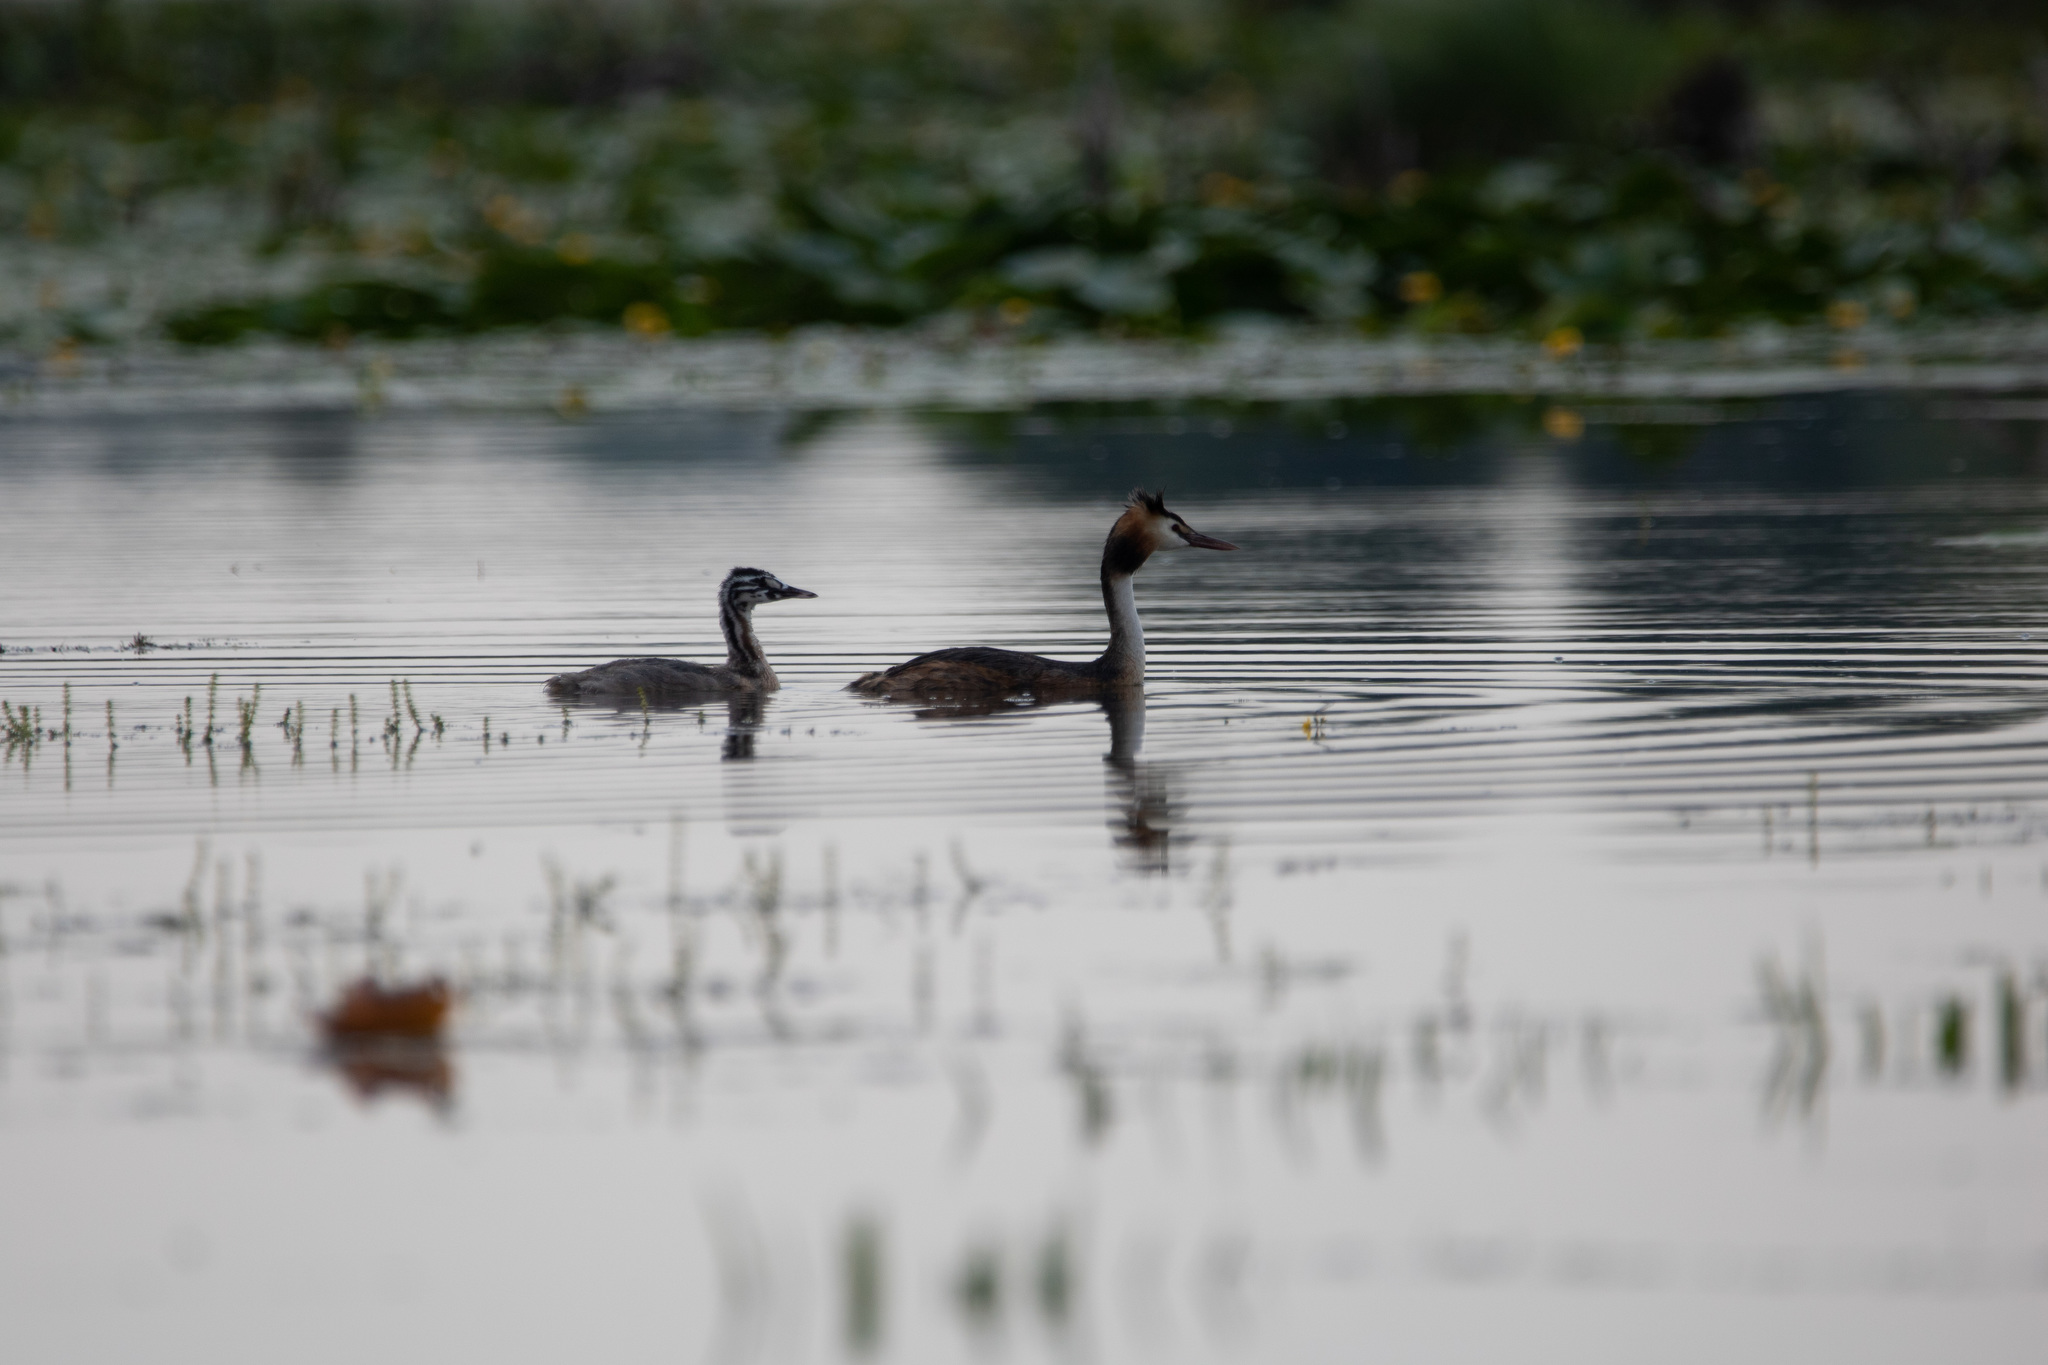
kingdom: Animalia
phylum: Chordata
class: Aves
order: Podicipediformes
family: Podicipedidae
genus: Podiceps
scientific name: Podiceps cristatus
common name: Great crested grebe
